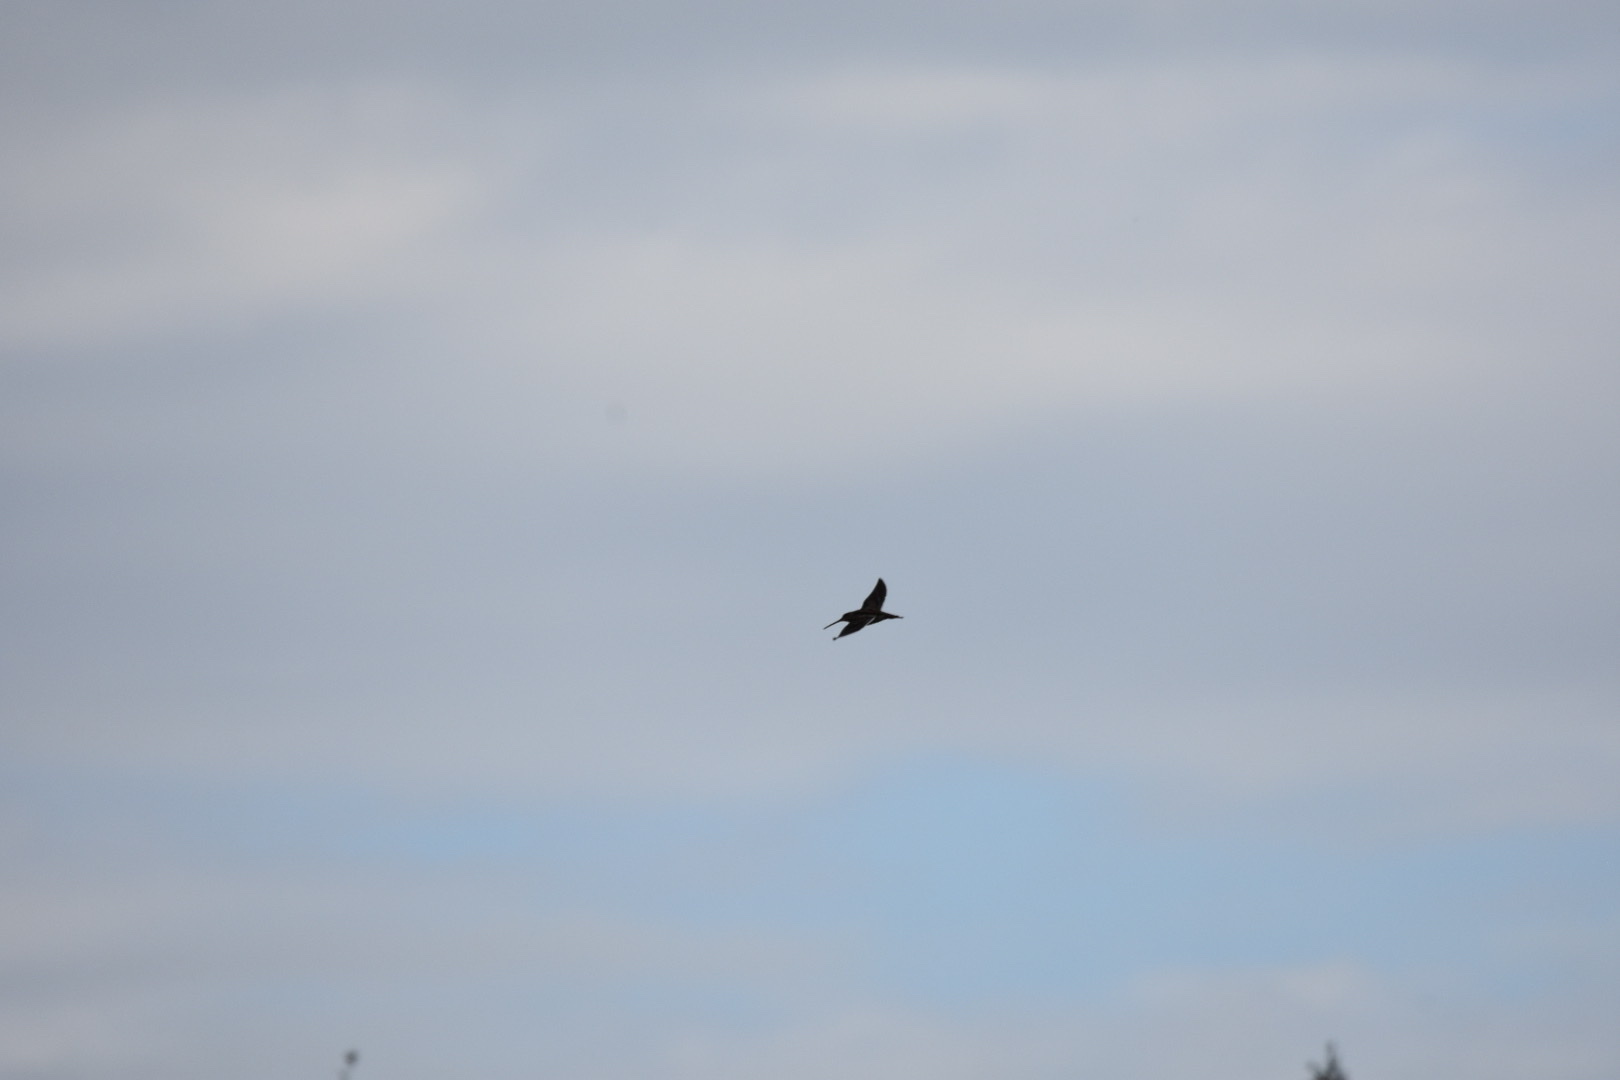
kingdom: Animalia
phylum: Chordata
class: Aves
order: Charadriiformes
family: Scolopacidae
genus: Gallinago
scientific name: Gallinago gallinago
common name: Common snipe
